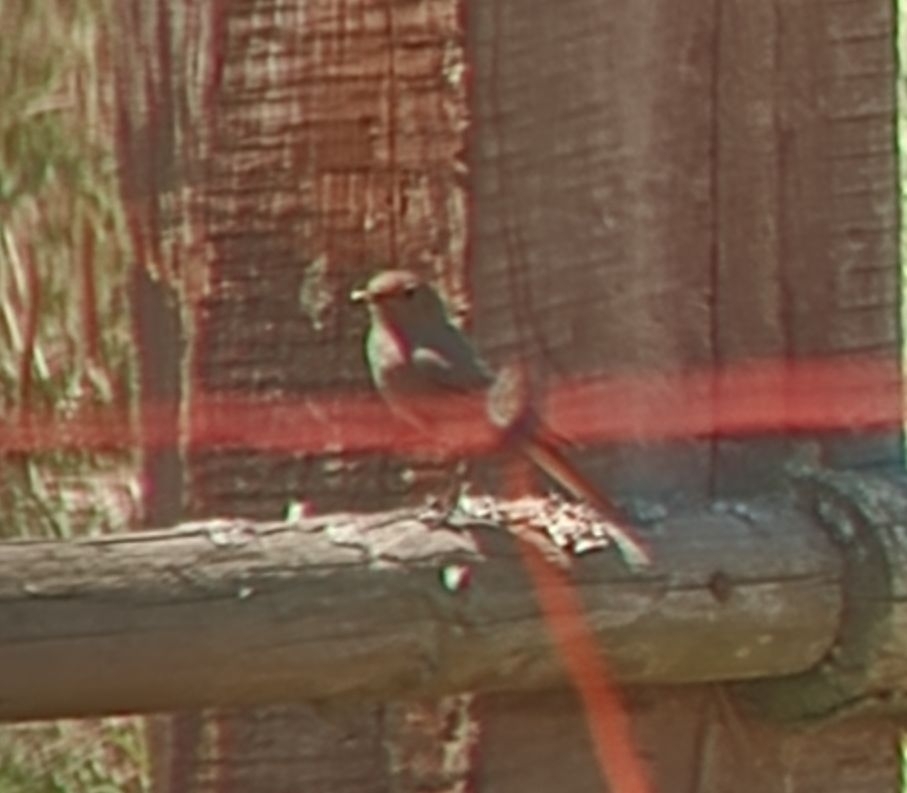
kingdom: Animalia
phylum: Chordata
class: Aves
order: Passeriformes
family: Muscicapidae
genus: Phoenicurus
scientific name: Phoenicurus ochruros
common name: Black redstart
